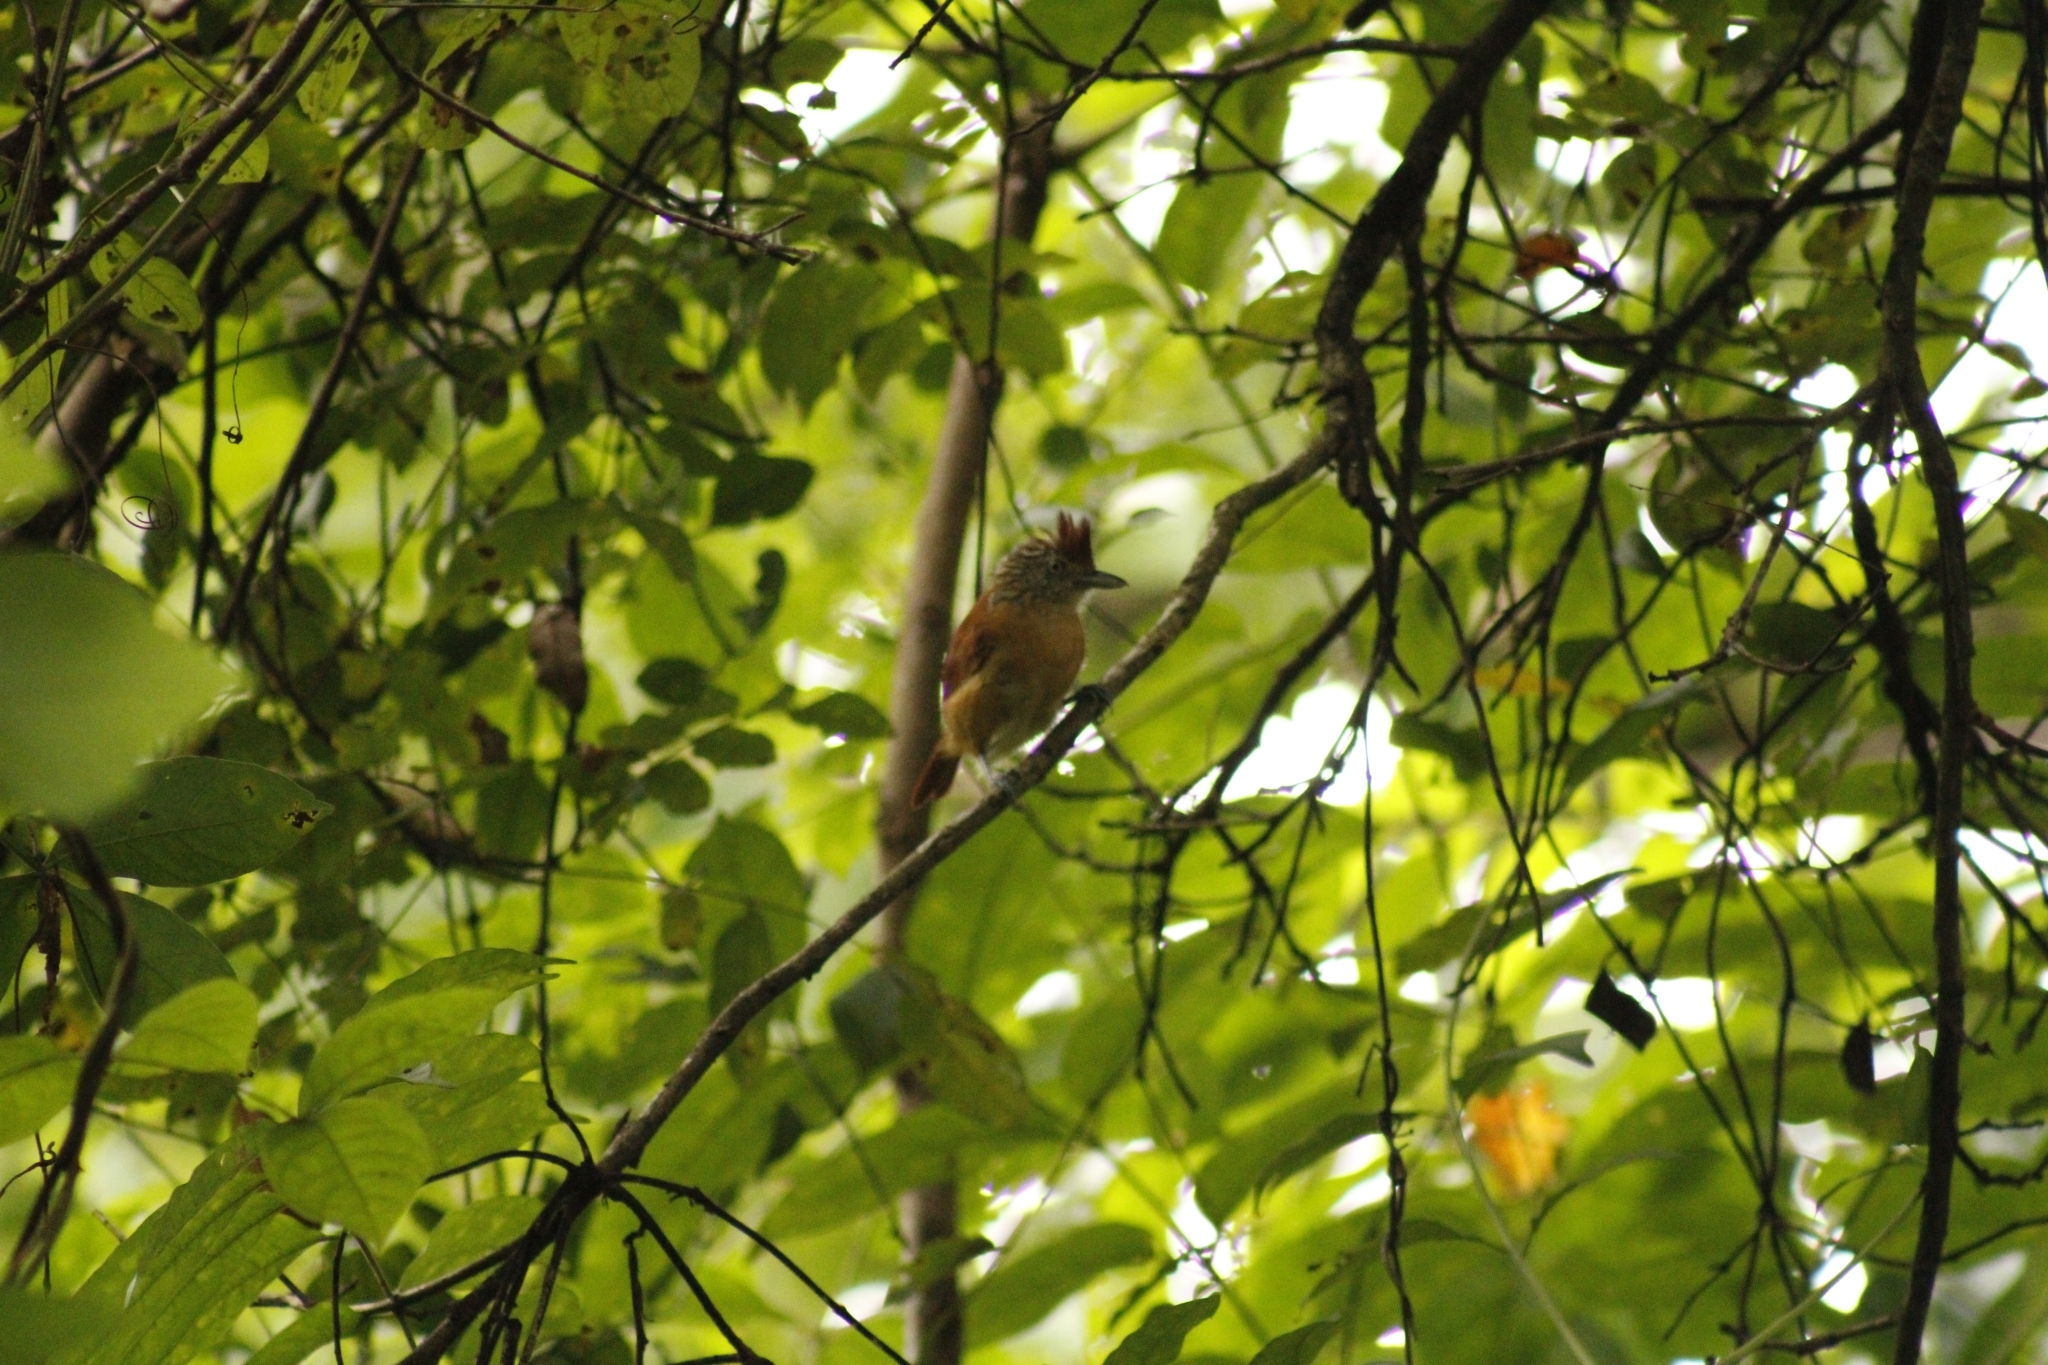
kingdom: Animalia
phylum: Chordata
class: Aves
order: Passeriformes
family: Thamnophilidae
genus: Thamnophilus
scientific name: Thamnophilus doliatus
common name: Barred antshrike
